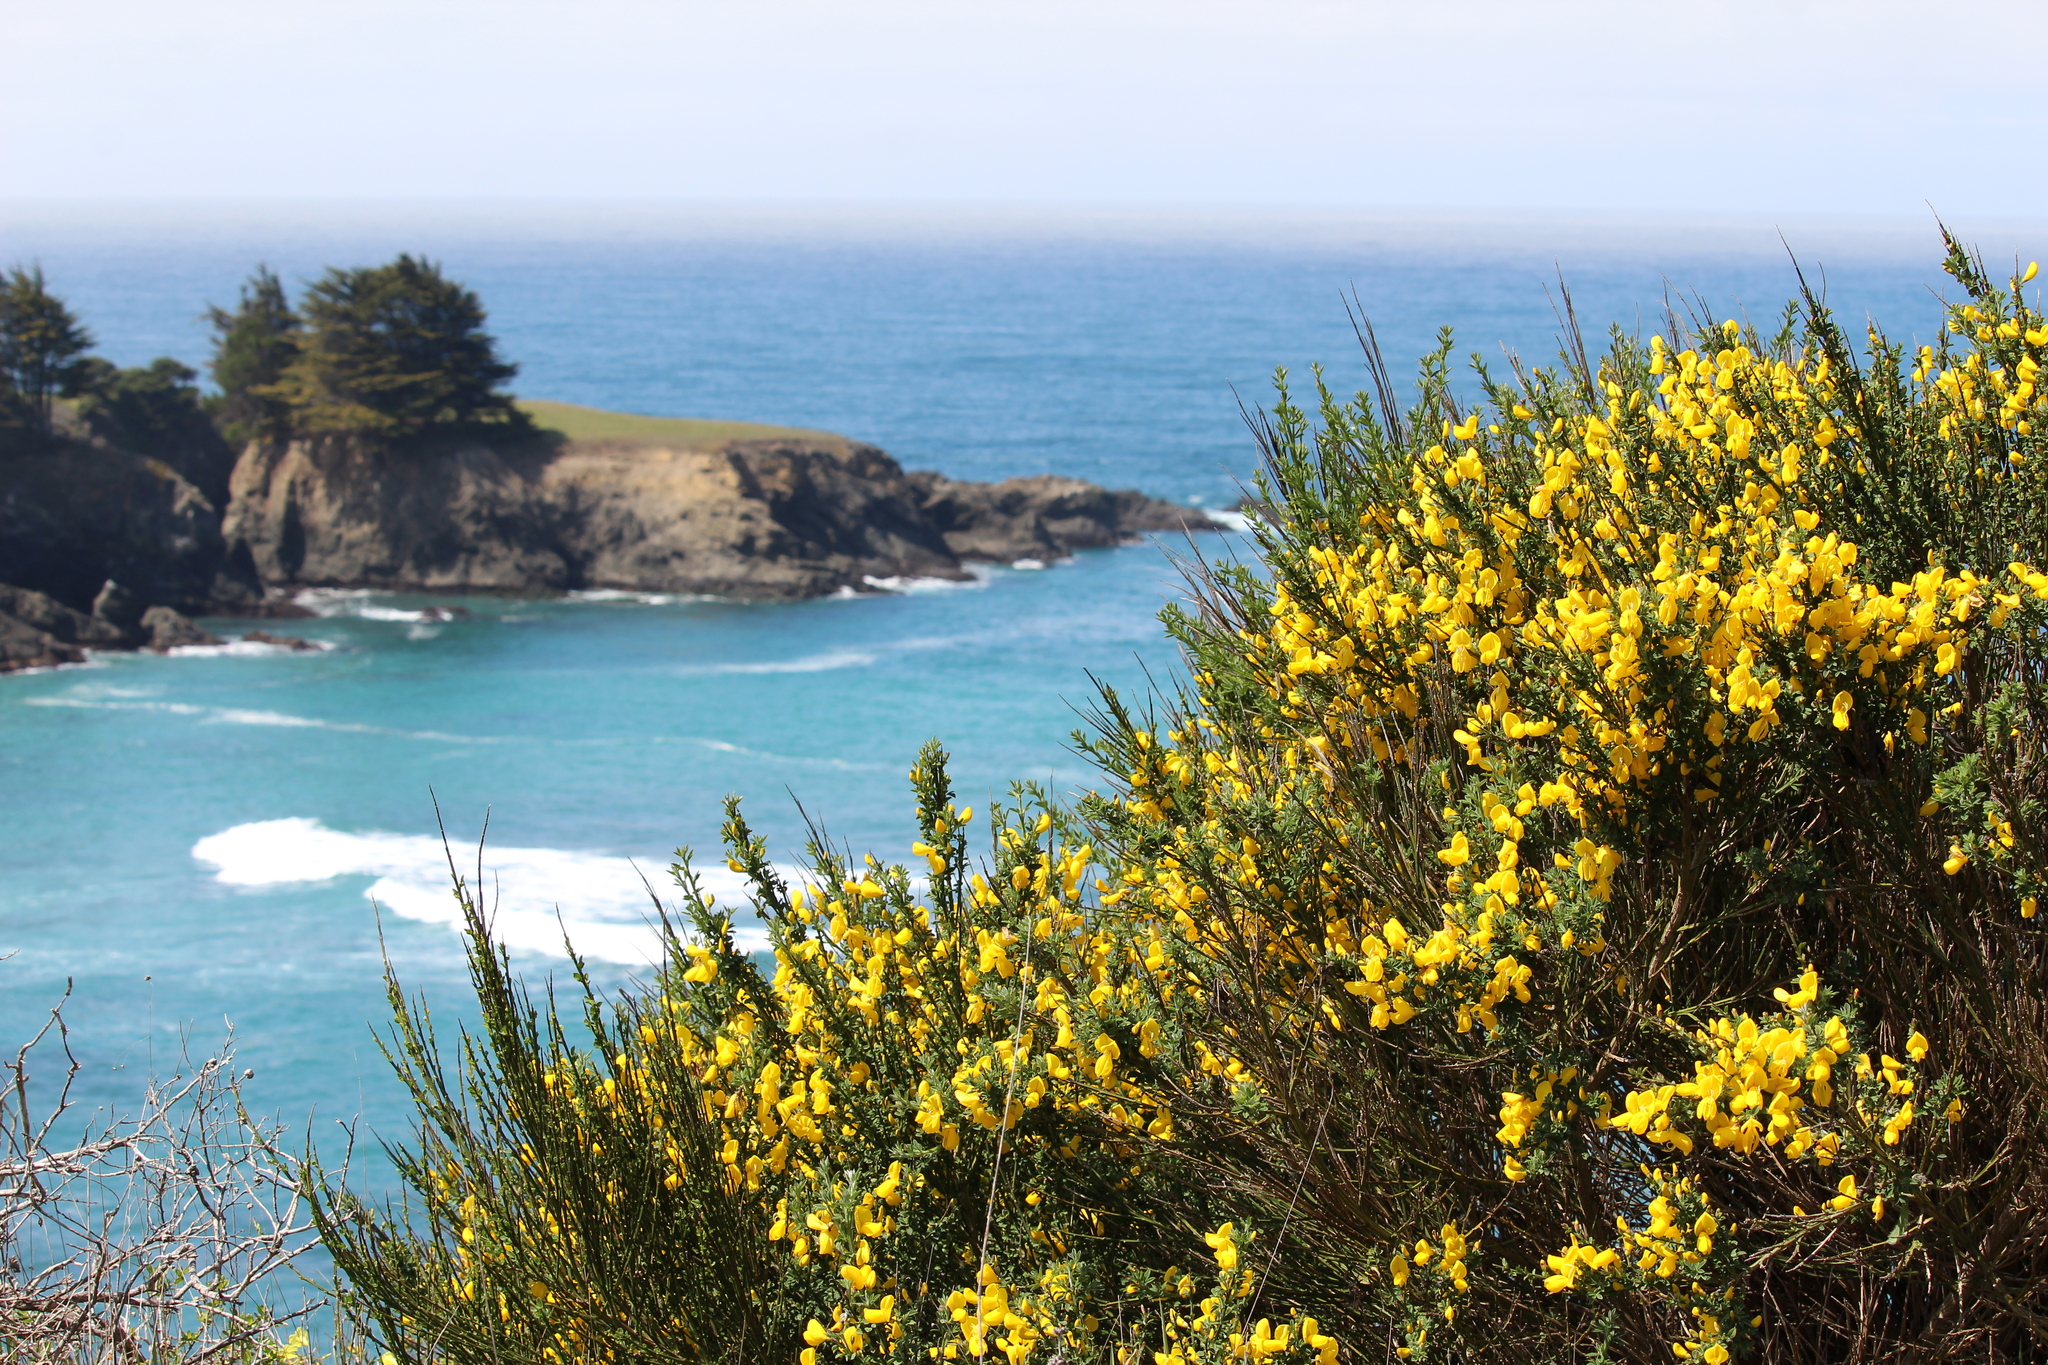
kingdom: Plantae
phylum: Tracheophyta
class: Magnoliopsida
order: Fabales
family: Fabaceae
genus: Cytisus
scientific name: Cytisus scoparius
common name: Scotch broom
